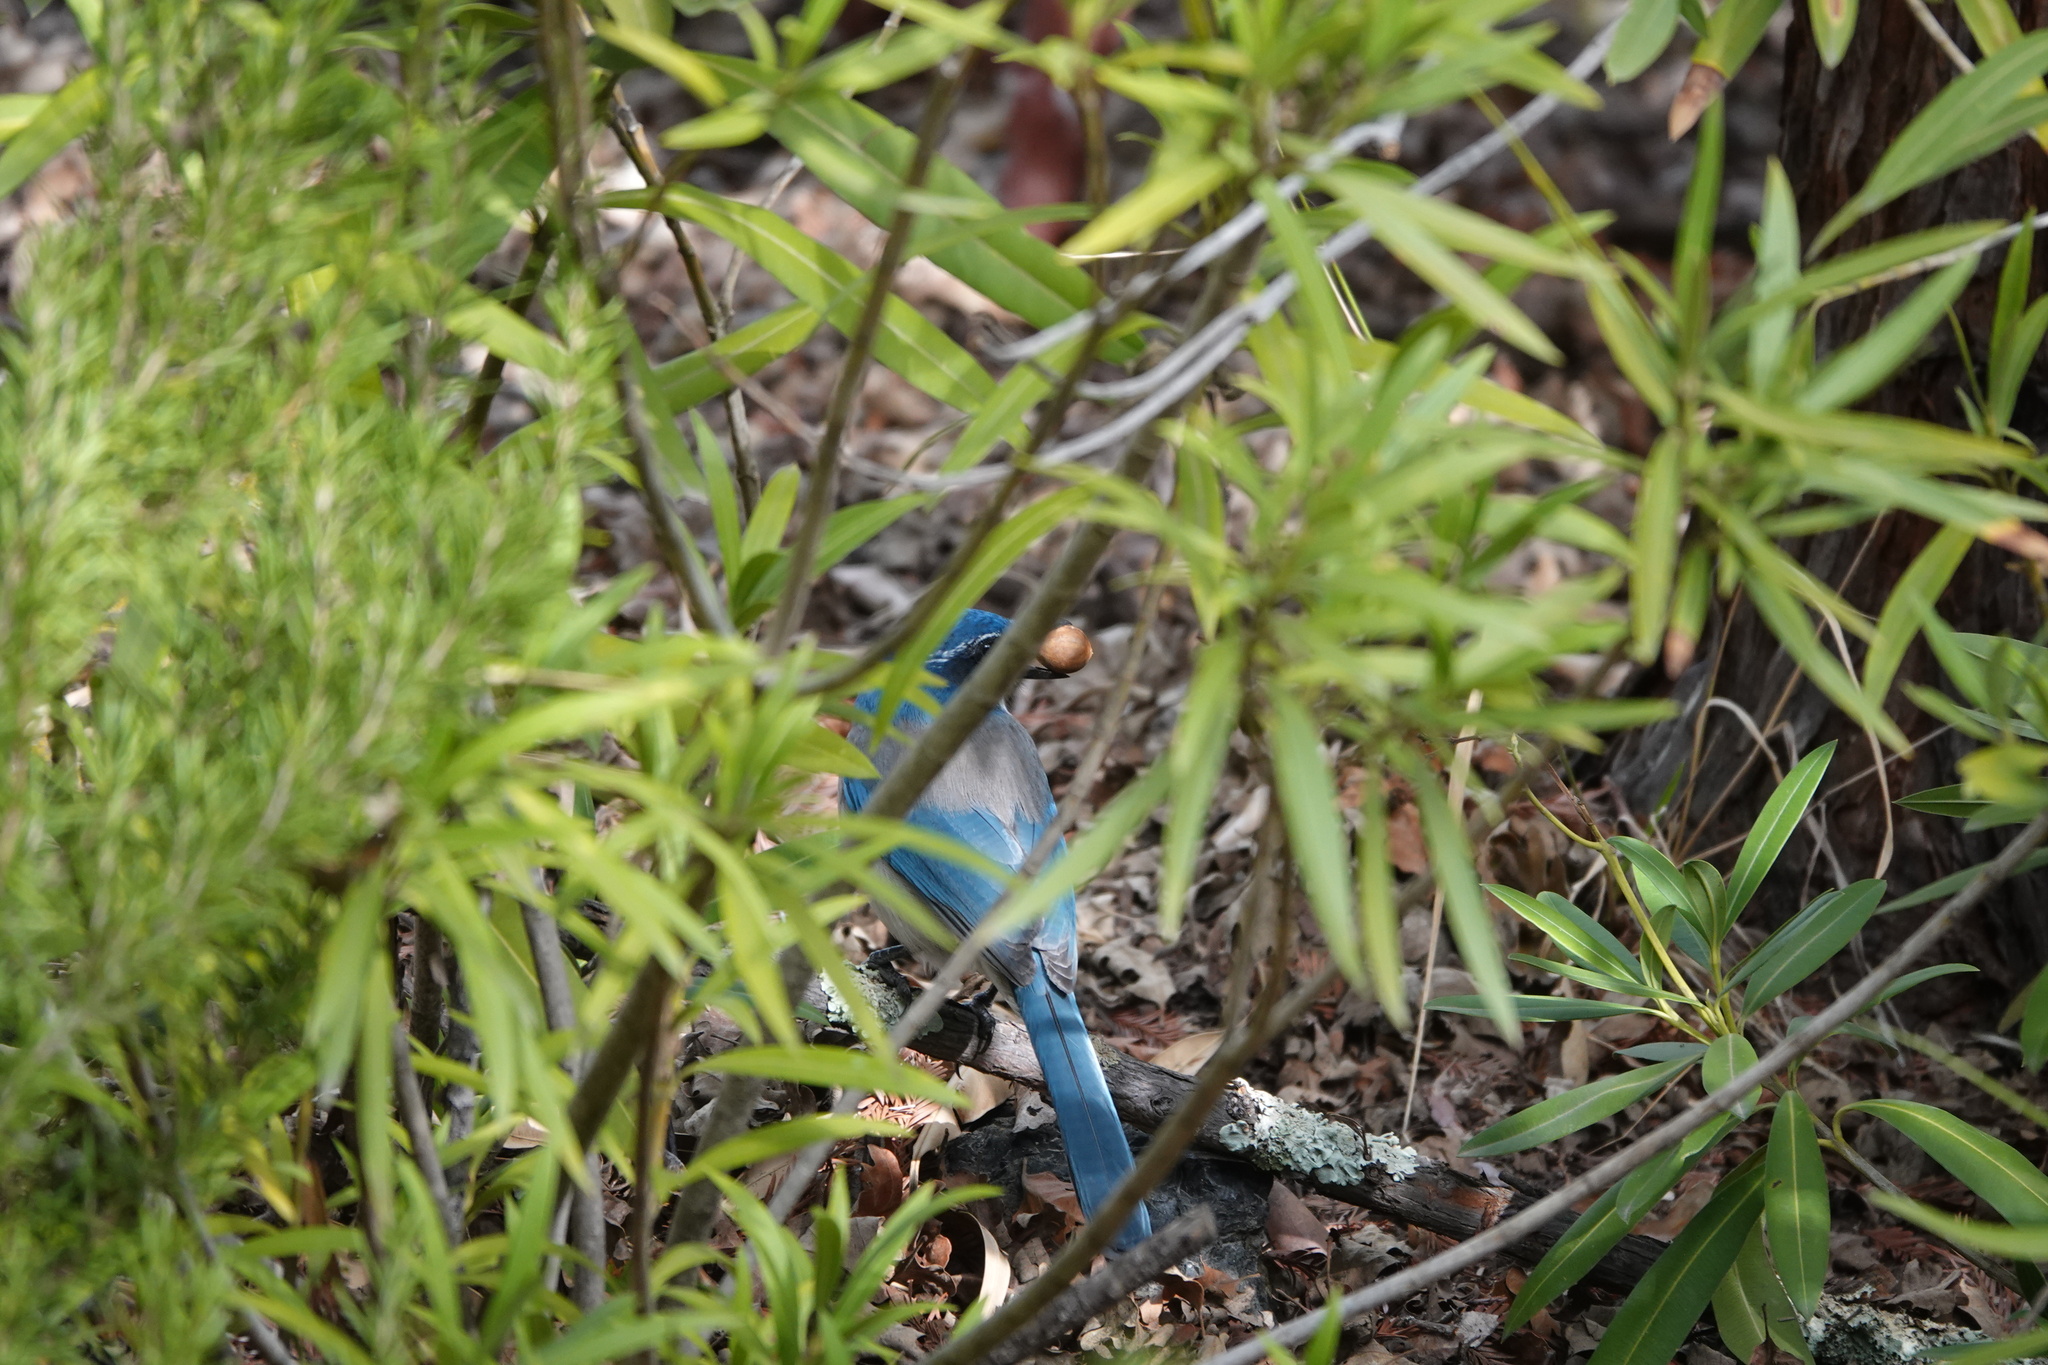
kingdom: Animalia
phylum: Chordata
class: Aves
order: Passeriformes
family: Corvidae
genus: Aphelocoma
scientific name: Aphelocoma californica
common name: California scrub-jay
